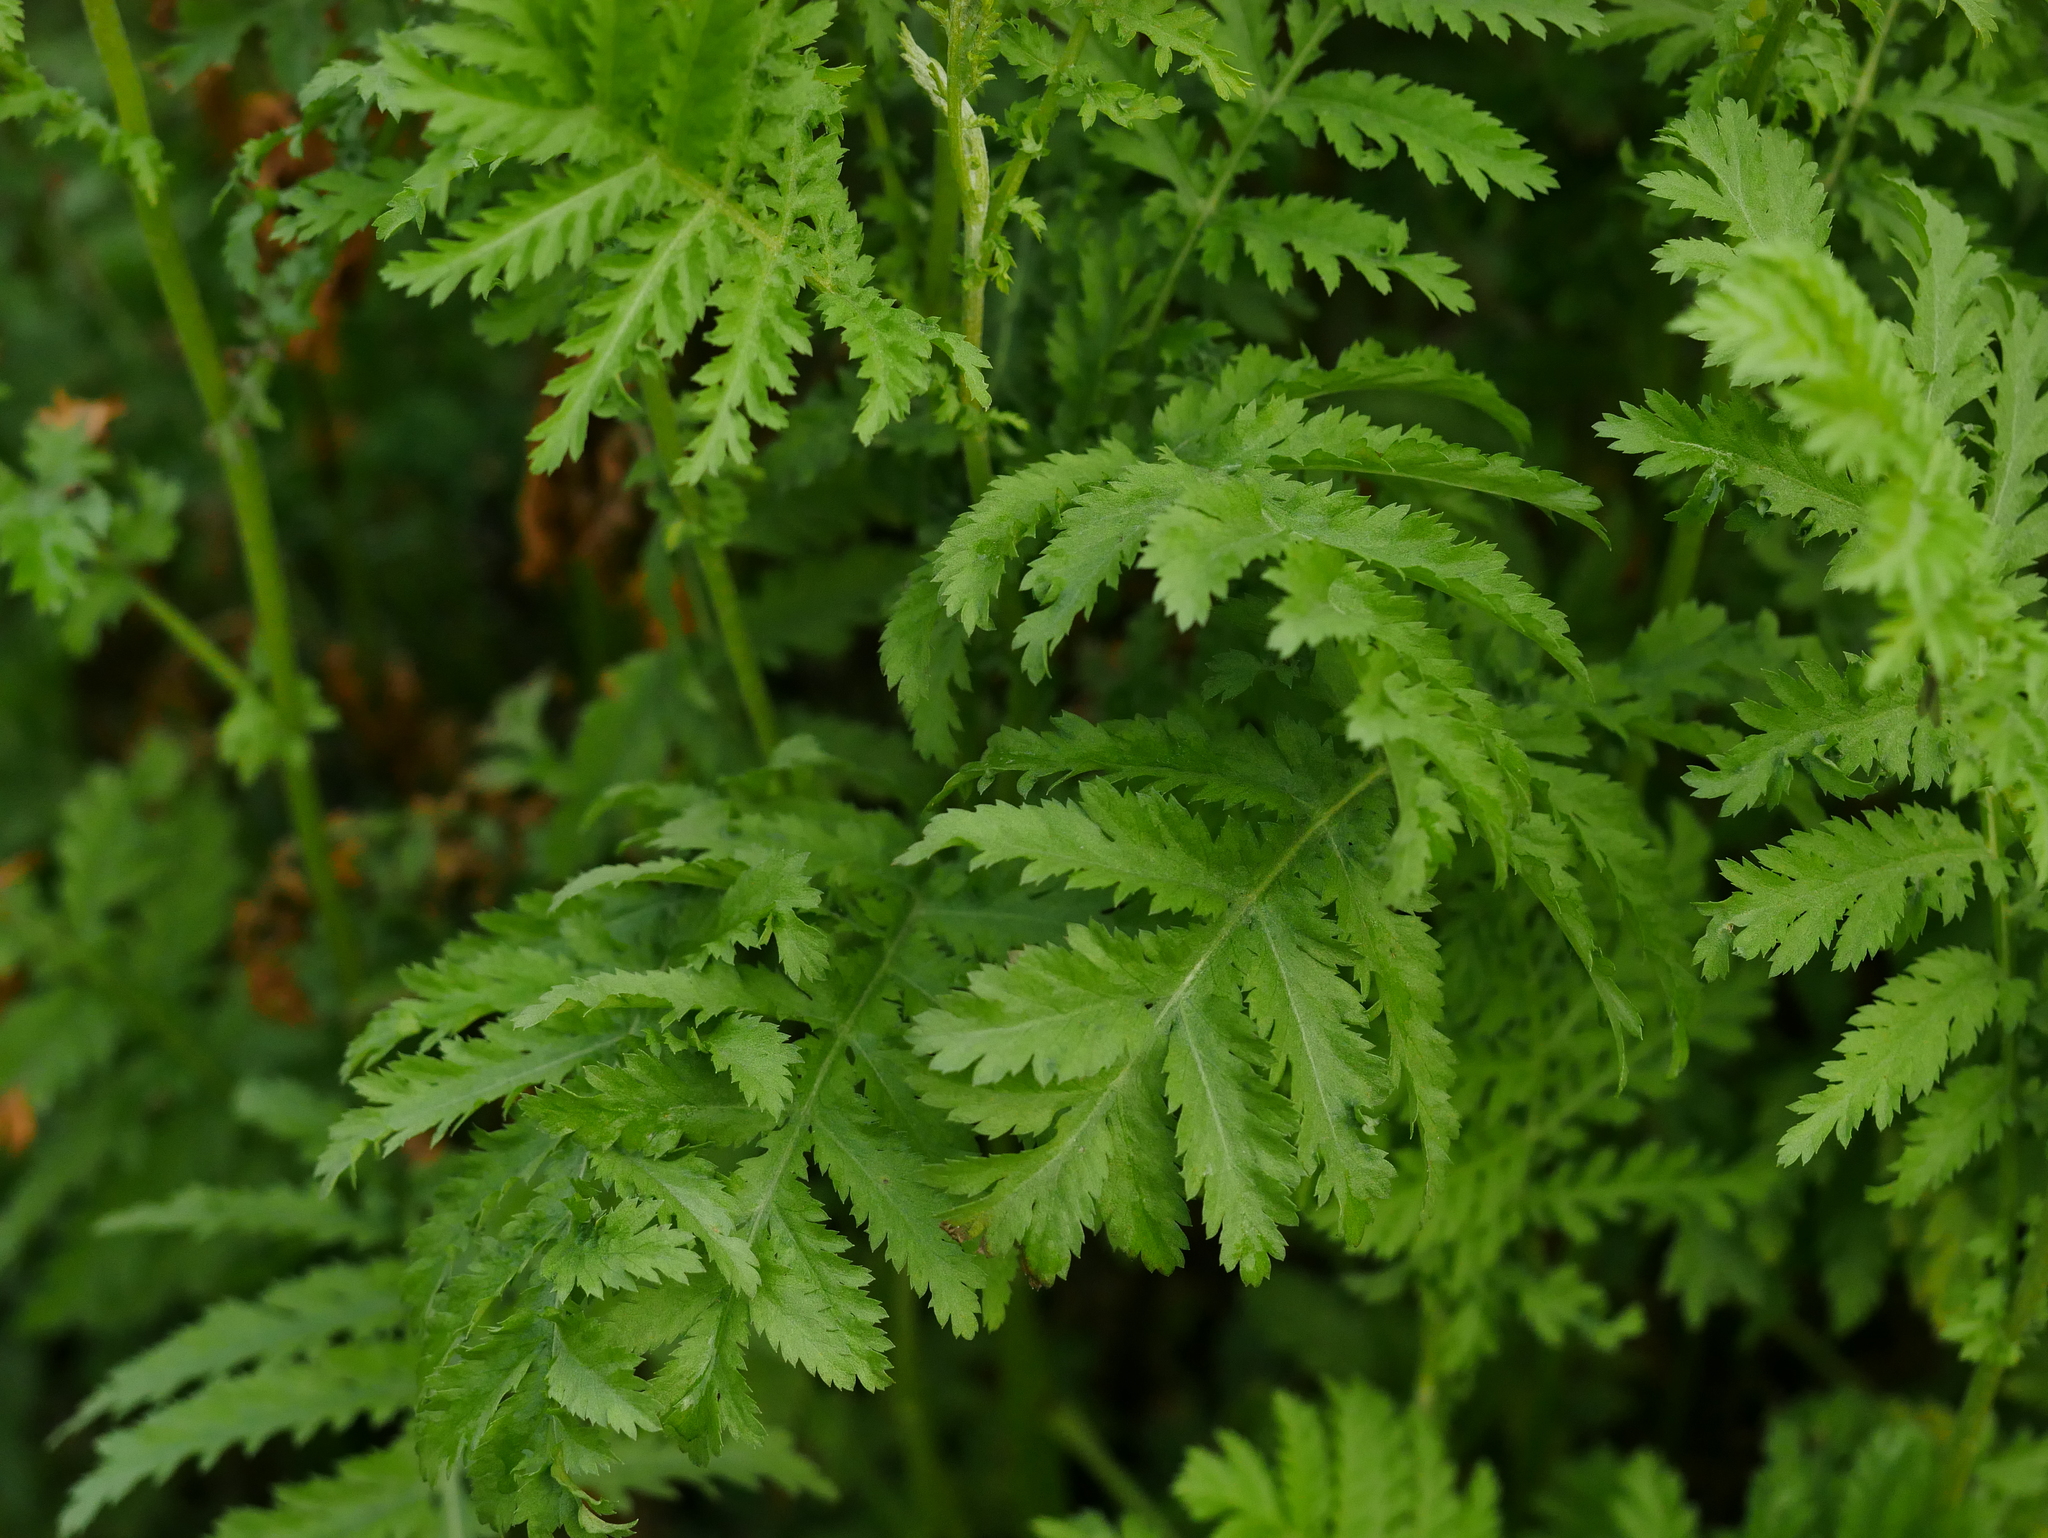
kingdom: Plantae
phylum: Tracheophyta
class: Magnoliopsida
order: Asterales
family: Asteraceae
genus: Tanacetum
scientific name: Tanacetum vulgare
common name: Common tansy
